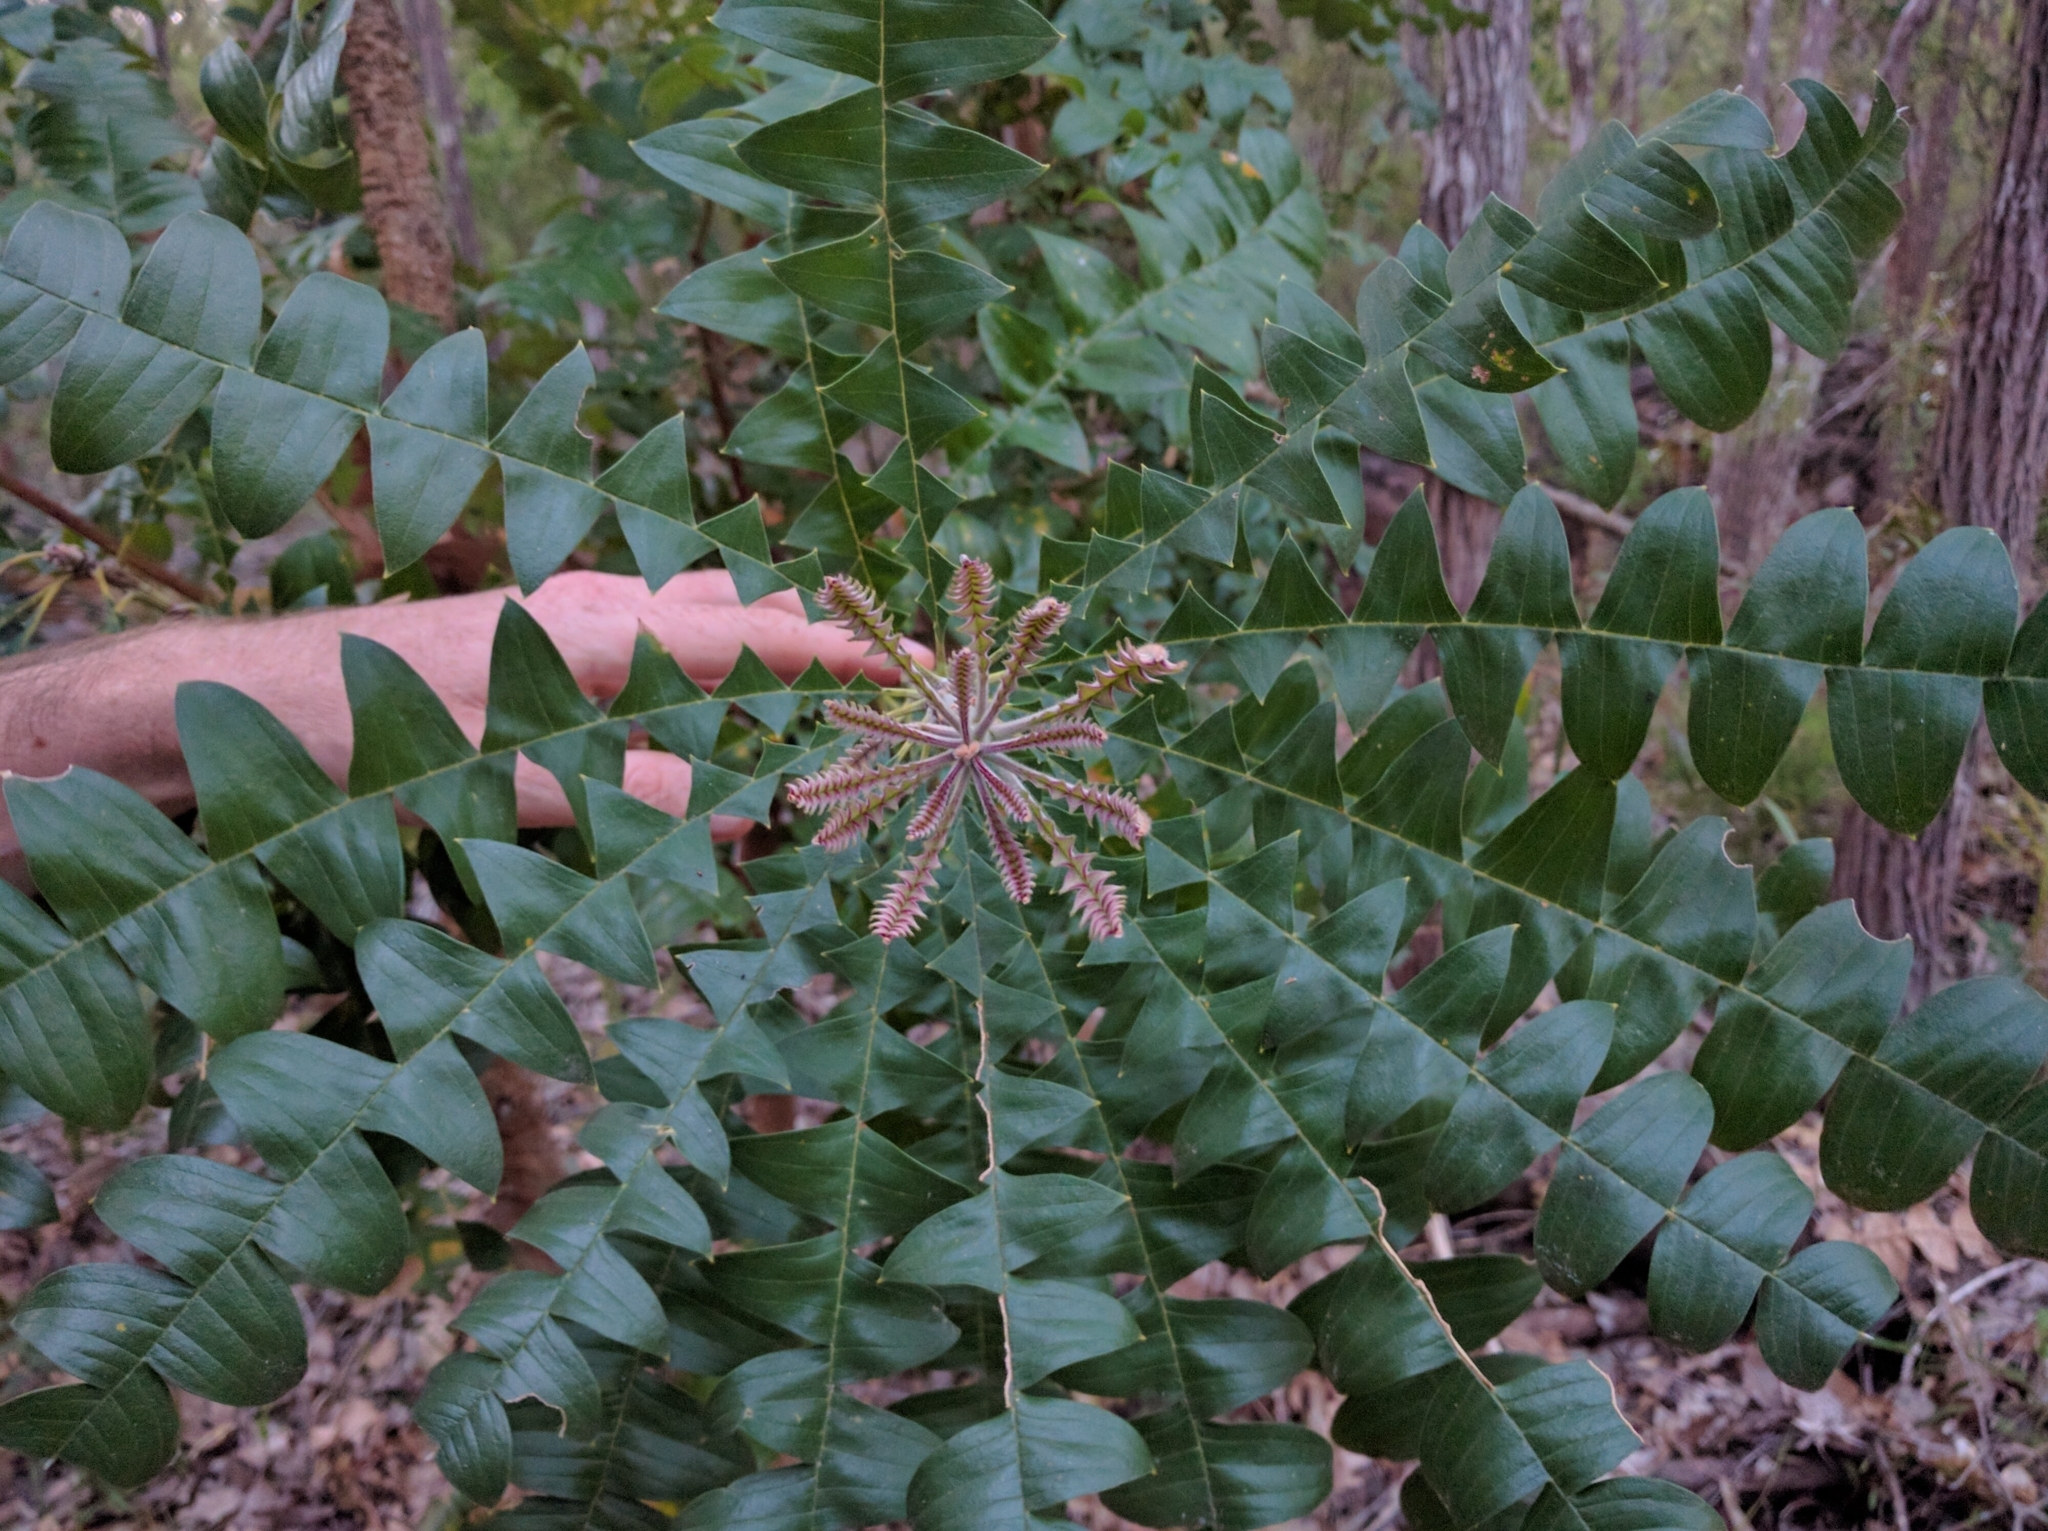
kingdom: Plantae
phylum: Tracheophyta
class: Magnoliopsida
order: Proteales
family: Proteaceae
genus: Banksia
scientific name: Banksia grandis
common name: Giant banksia
